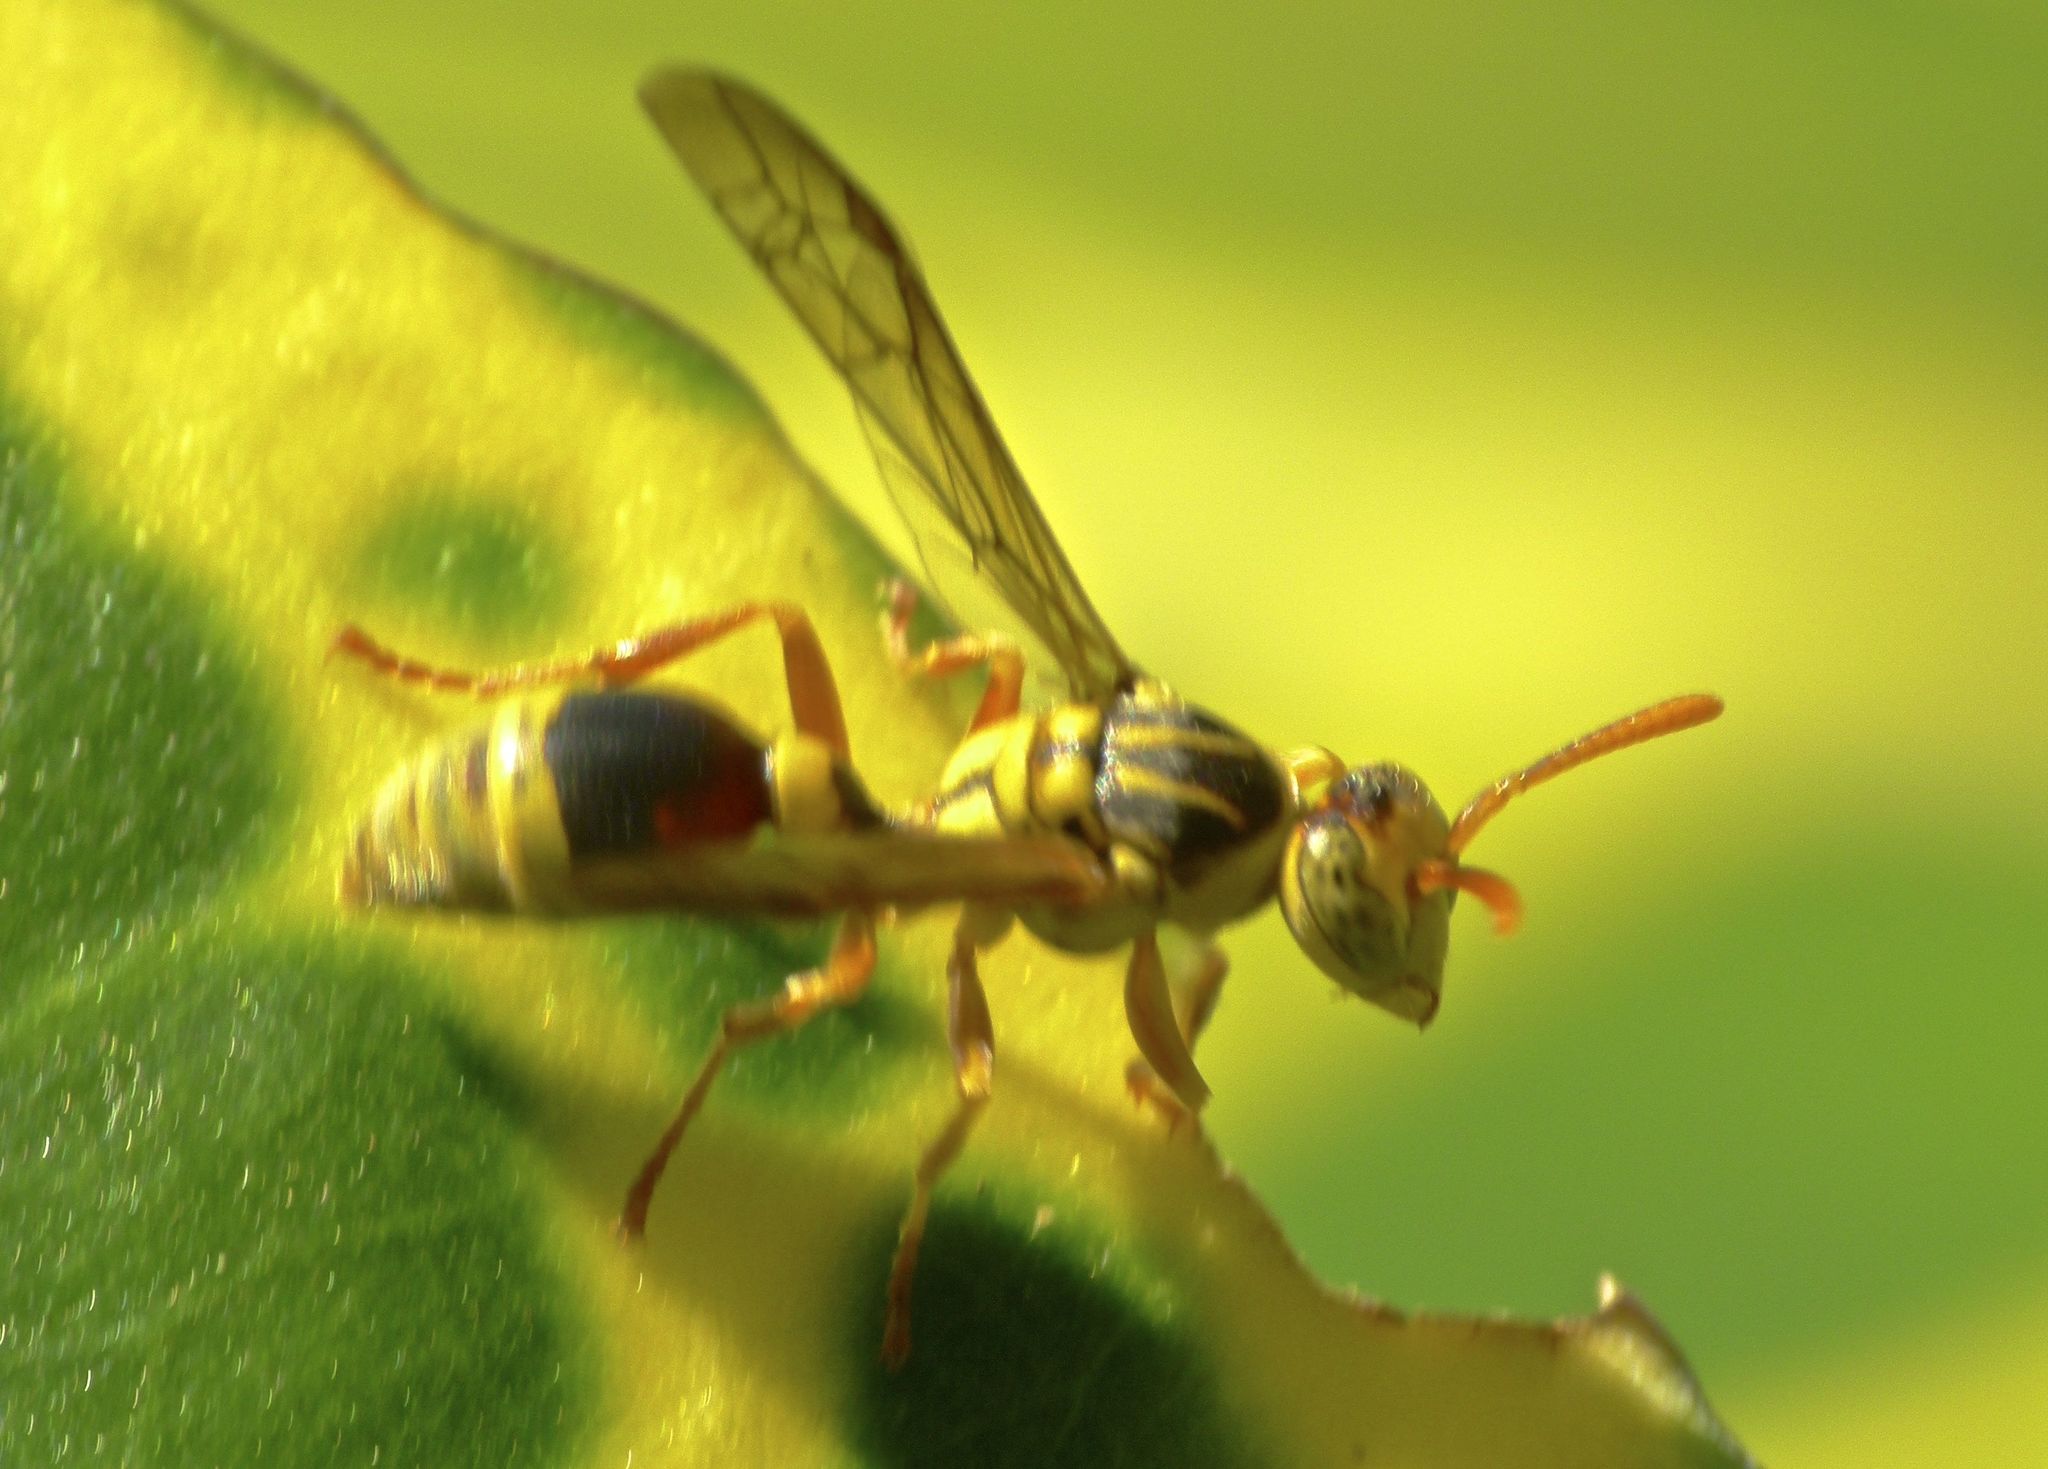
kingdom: Animalia
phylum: Arthropoda
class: Insecta
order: Hymenoptera
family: Vespidae
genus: Ropalidia
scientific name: Ropalidia romandi
